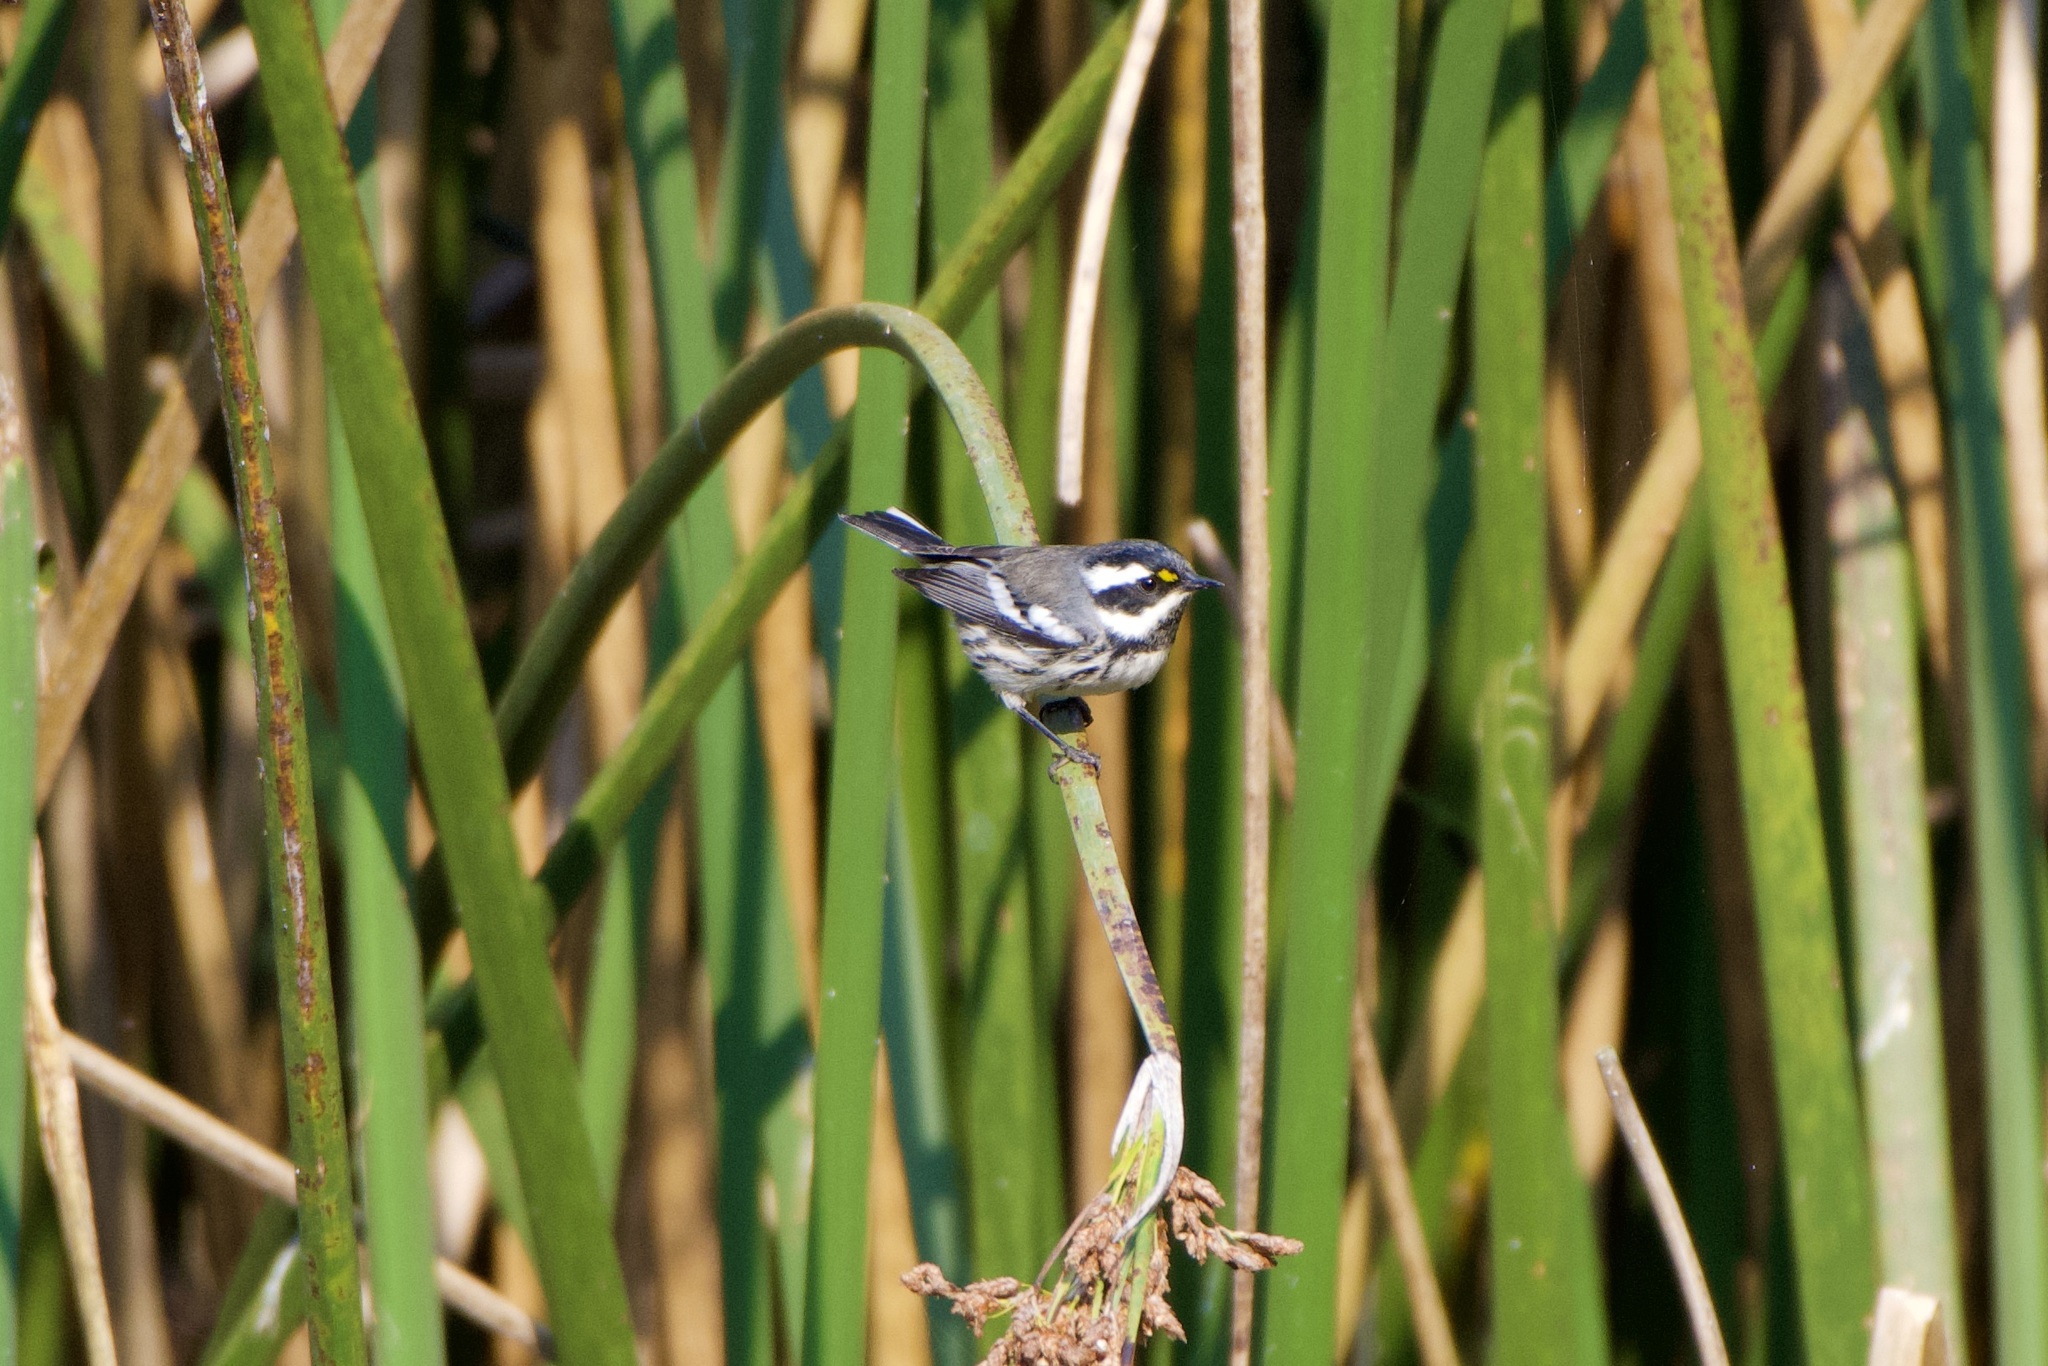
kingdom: Animalia
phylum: Chordata
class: Aves
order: Passeriformes
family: Parulidae
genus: Setophaga
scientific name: Setophaga nigrescens
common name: Black-throated gray warbler
